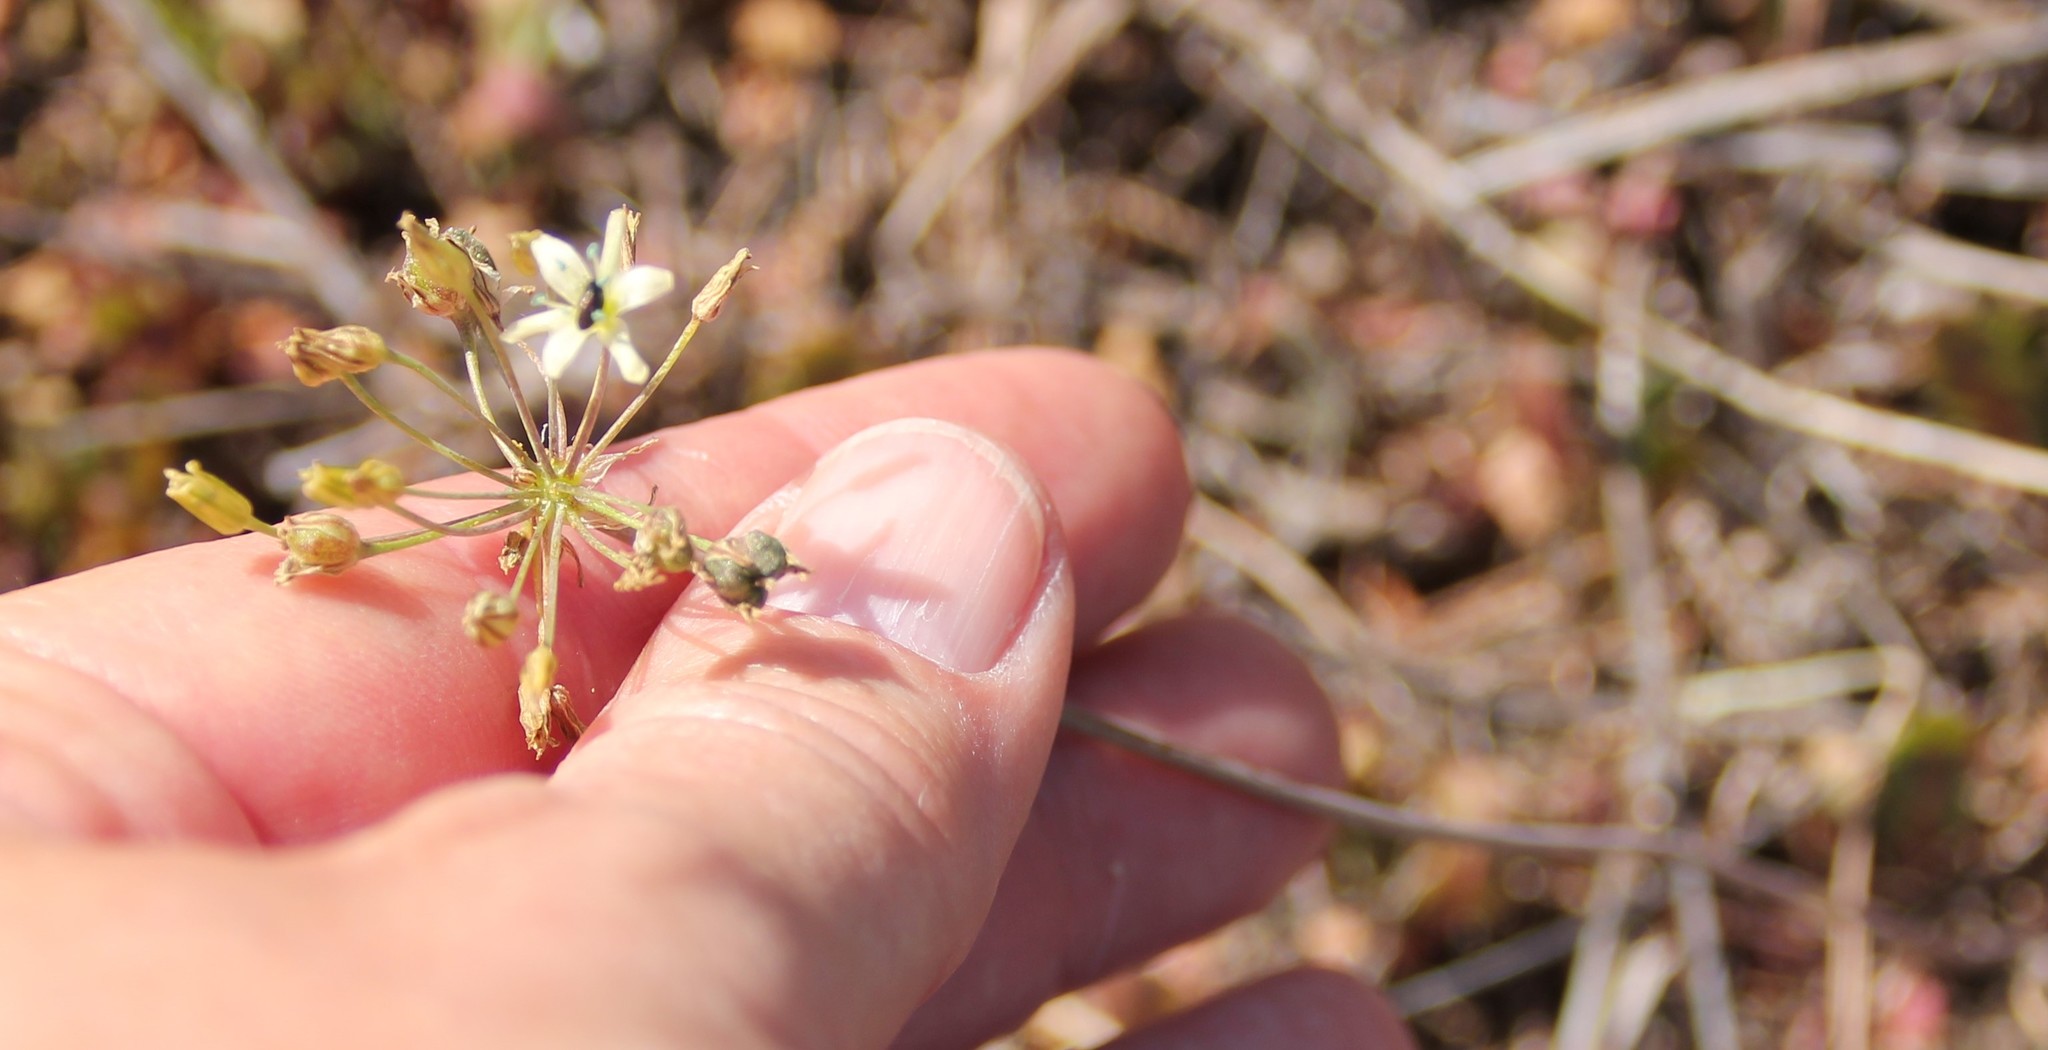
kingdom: Plantae
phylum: Tracheophyta
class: Liliopsida
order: Asparagales
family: Asparagaceae
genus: Muilla
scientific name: Muilla maritima
